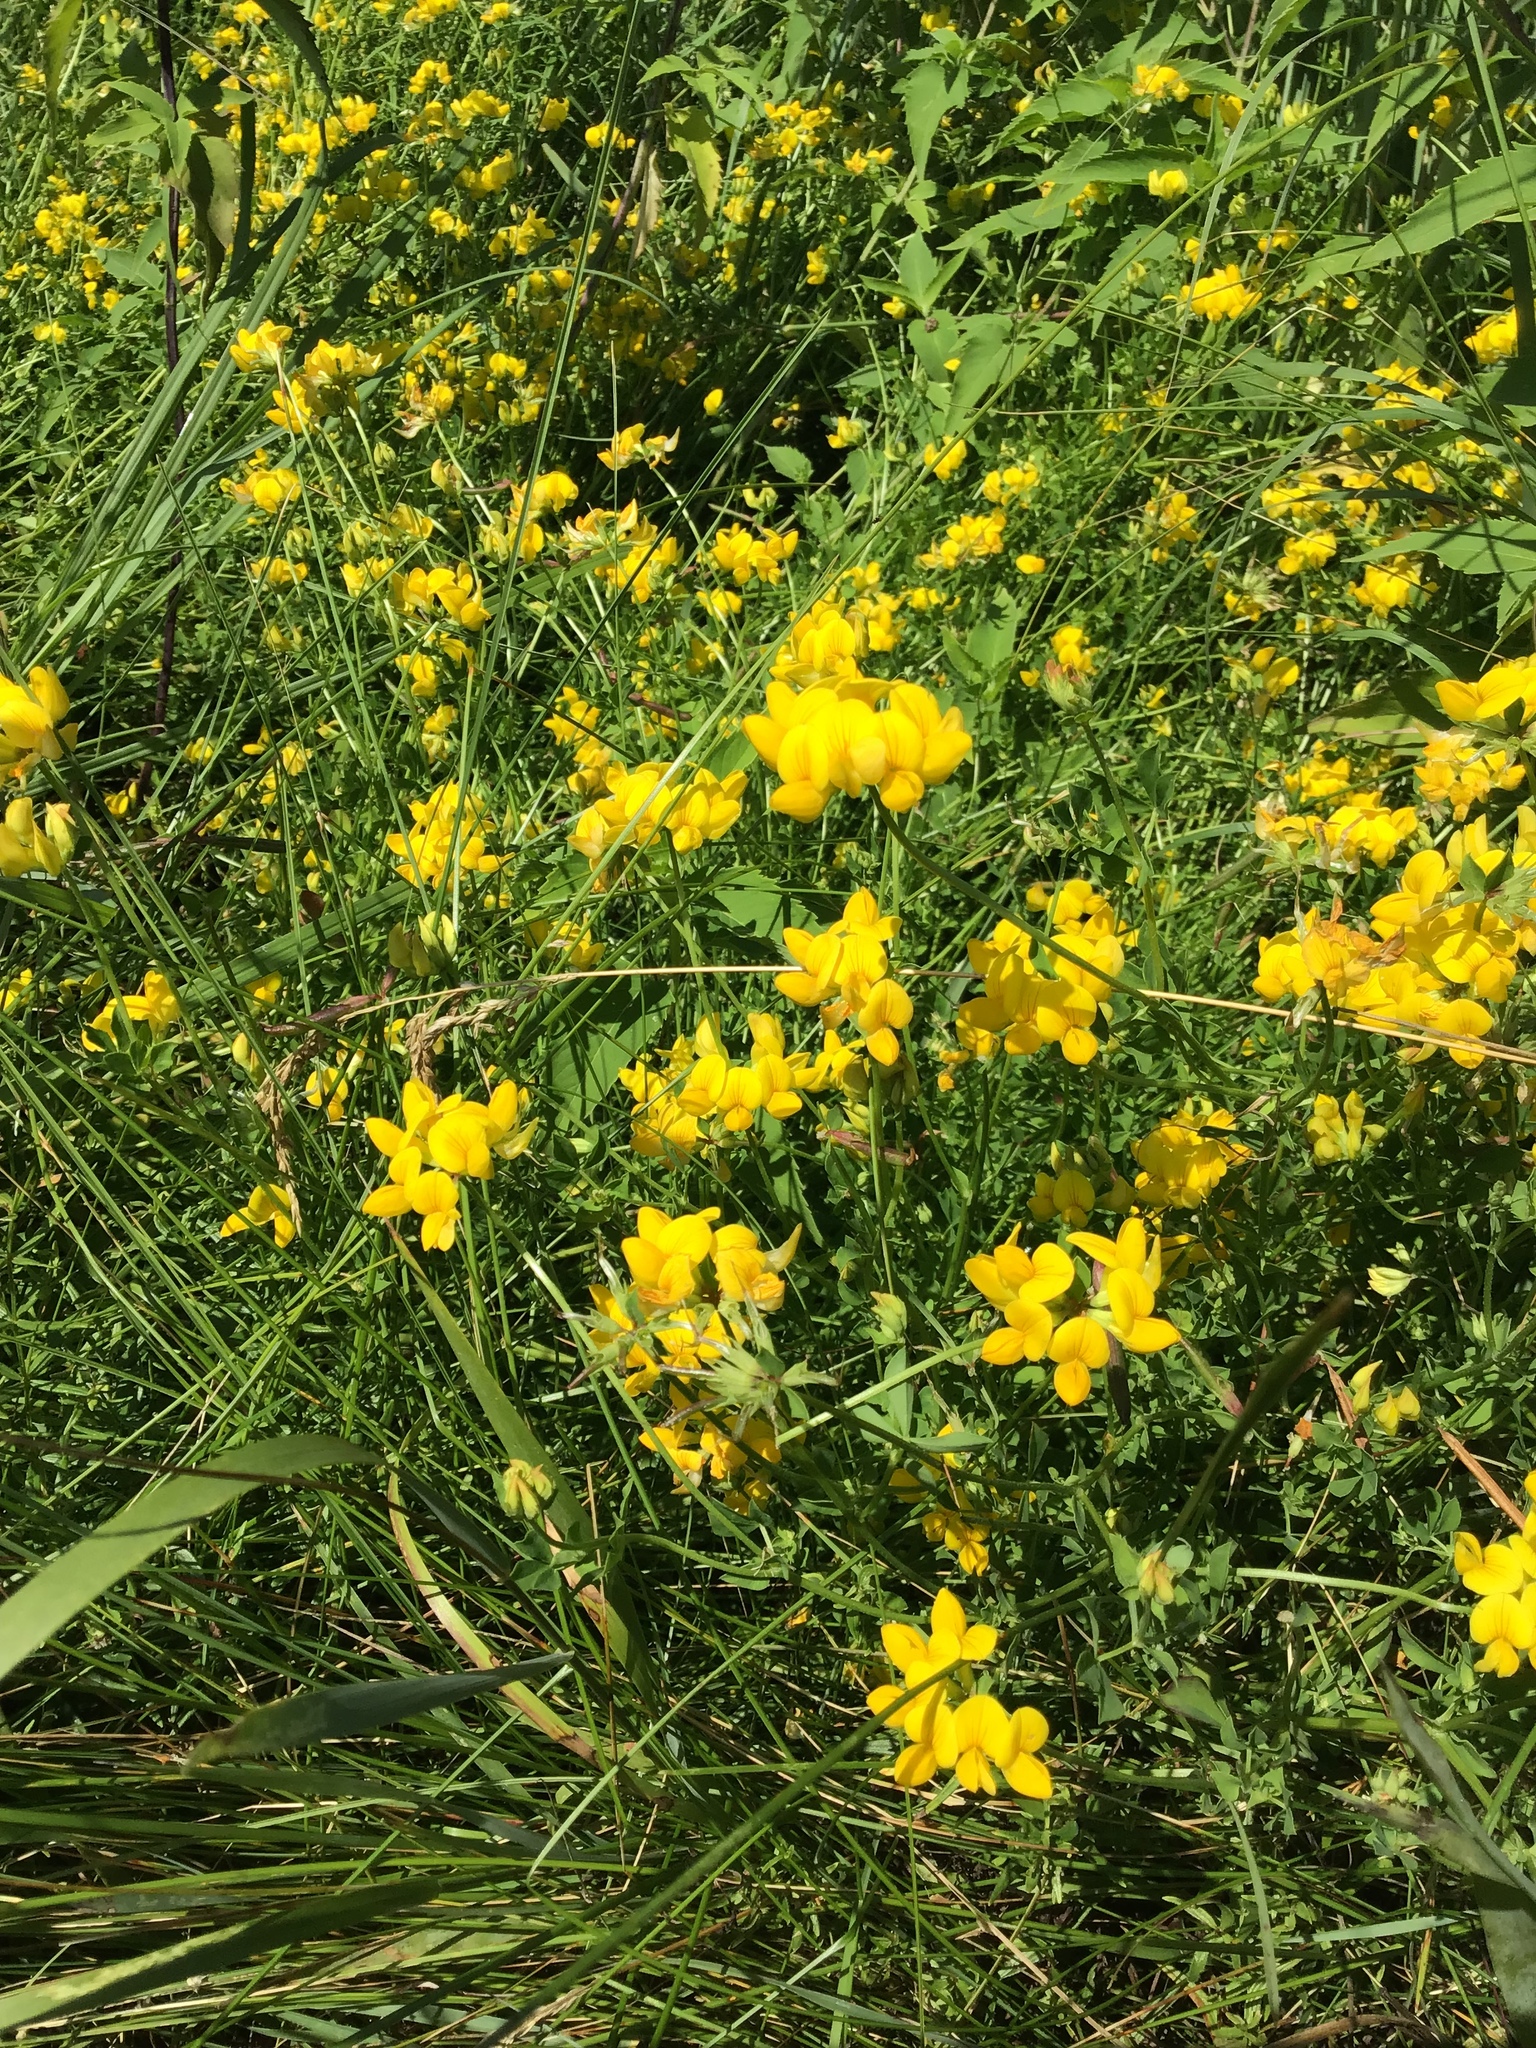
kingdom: Plantae
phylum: Tracheophyta
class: Magnoliopsida
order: Fabales
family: Fabaceae
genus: Lotus
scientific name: Lotus corniculatus
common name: Common bird's-foot-trefoil
